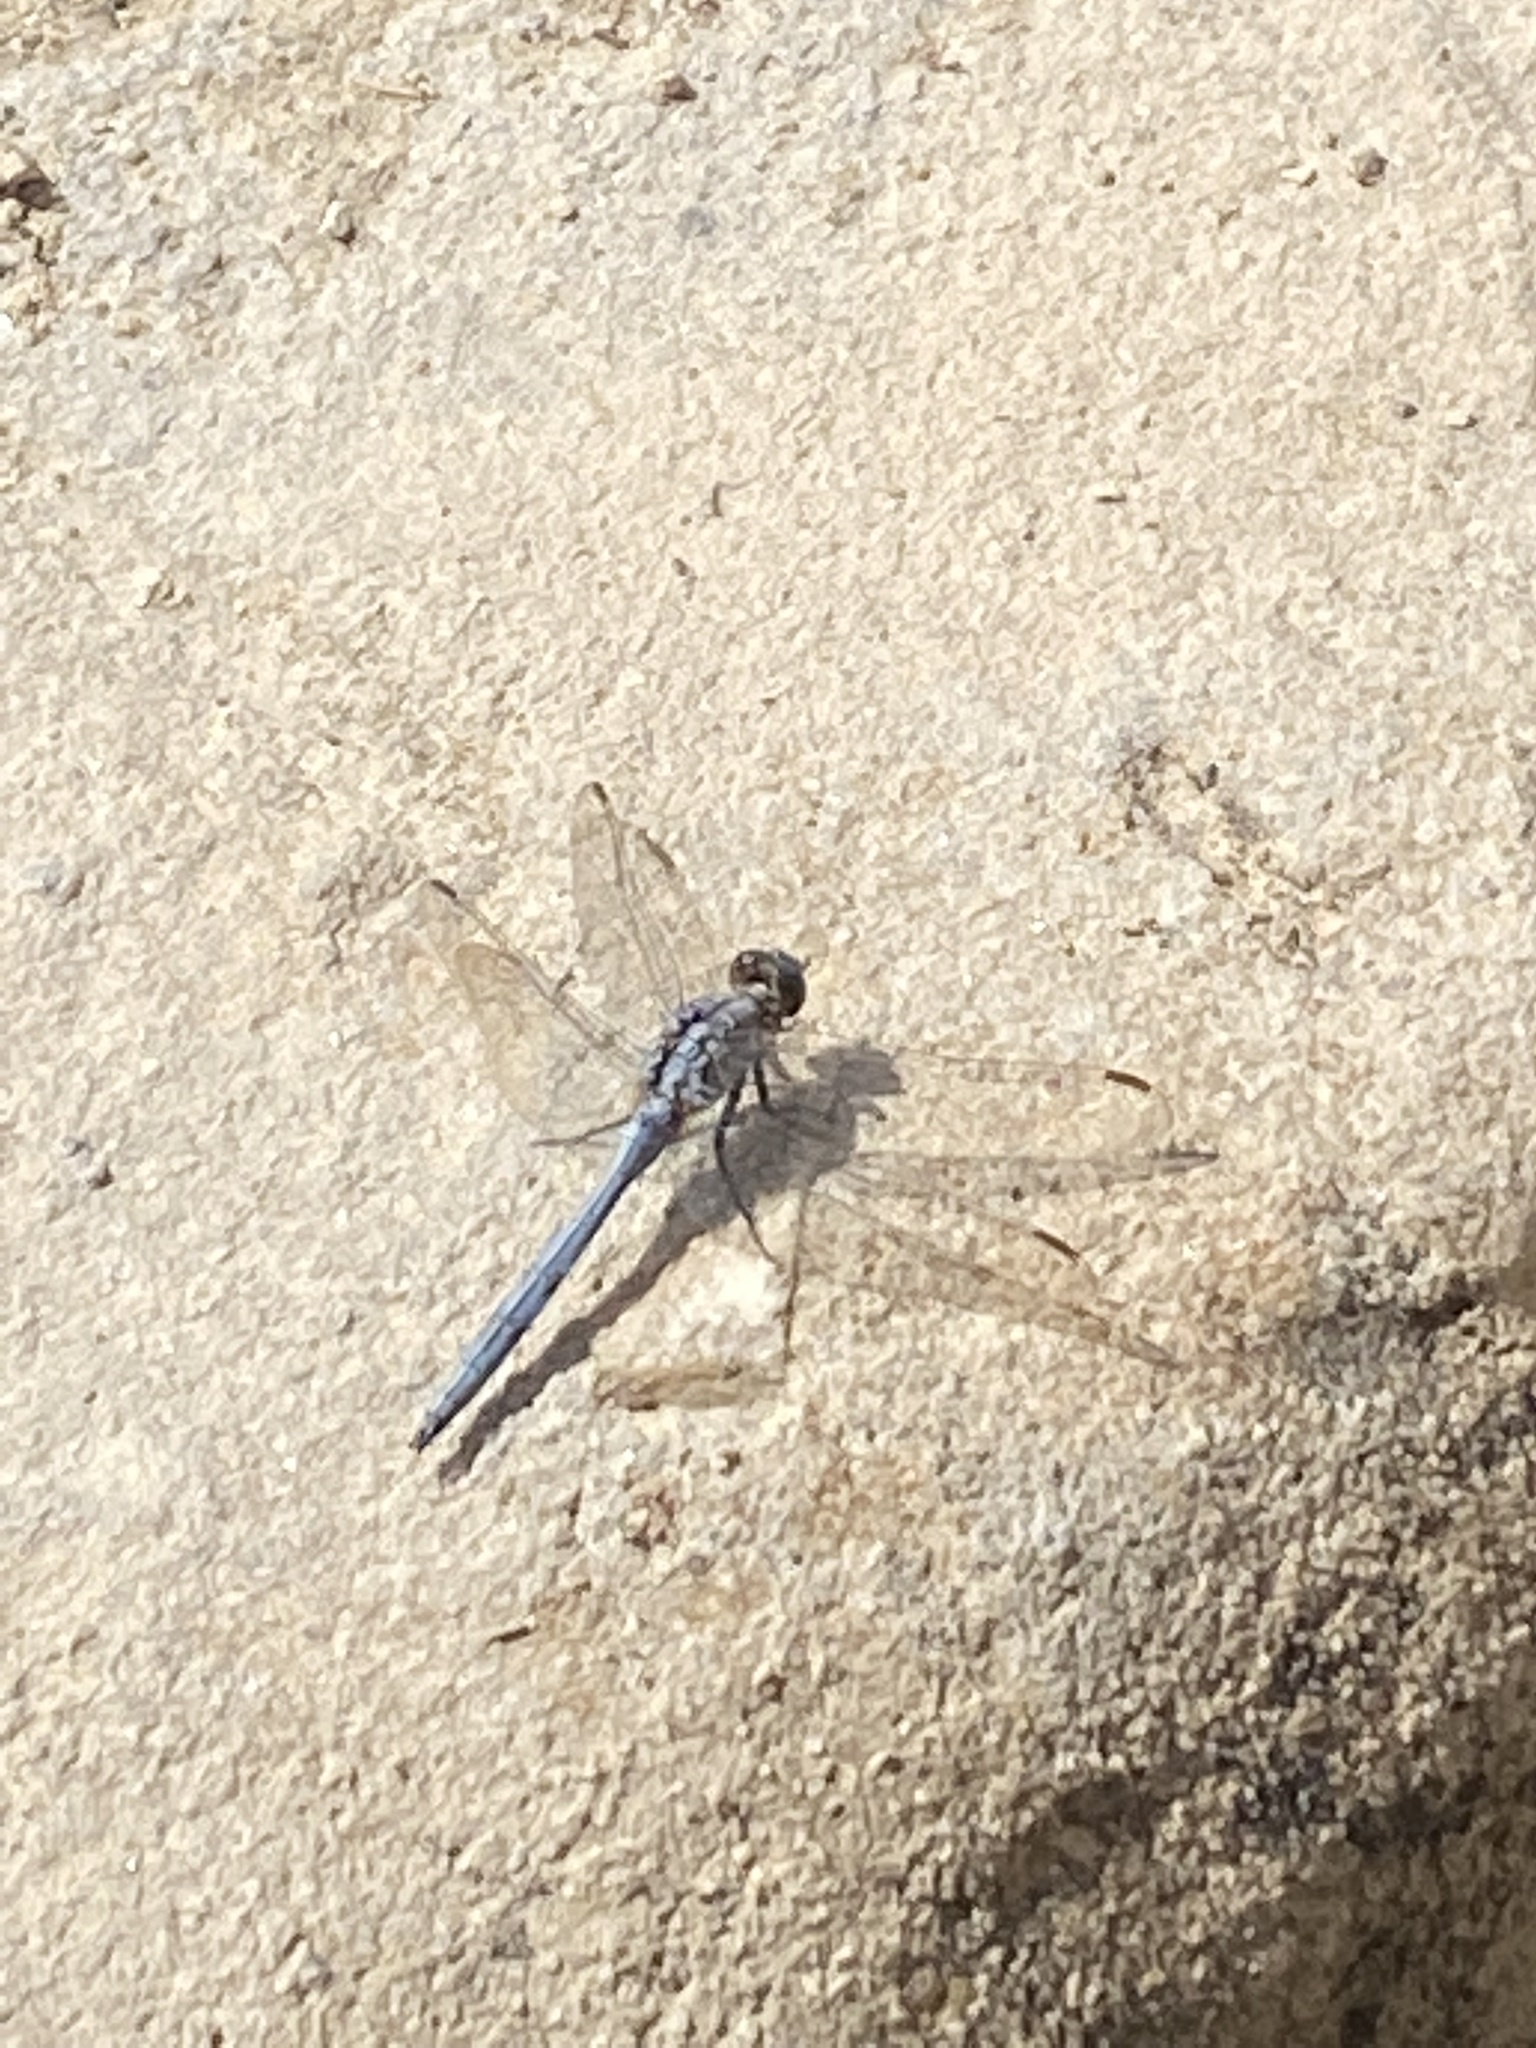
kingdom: Animalia
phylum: Arthropoda
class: Insecta
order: Odonata
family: Libellulidae
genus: Orthetrum
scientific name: Orthetrum chrysostigma
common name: Epaulet skimmer
